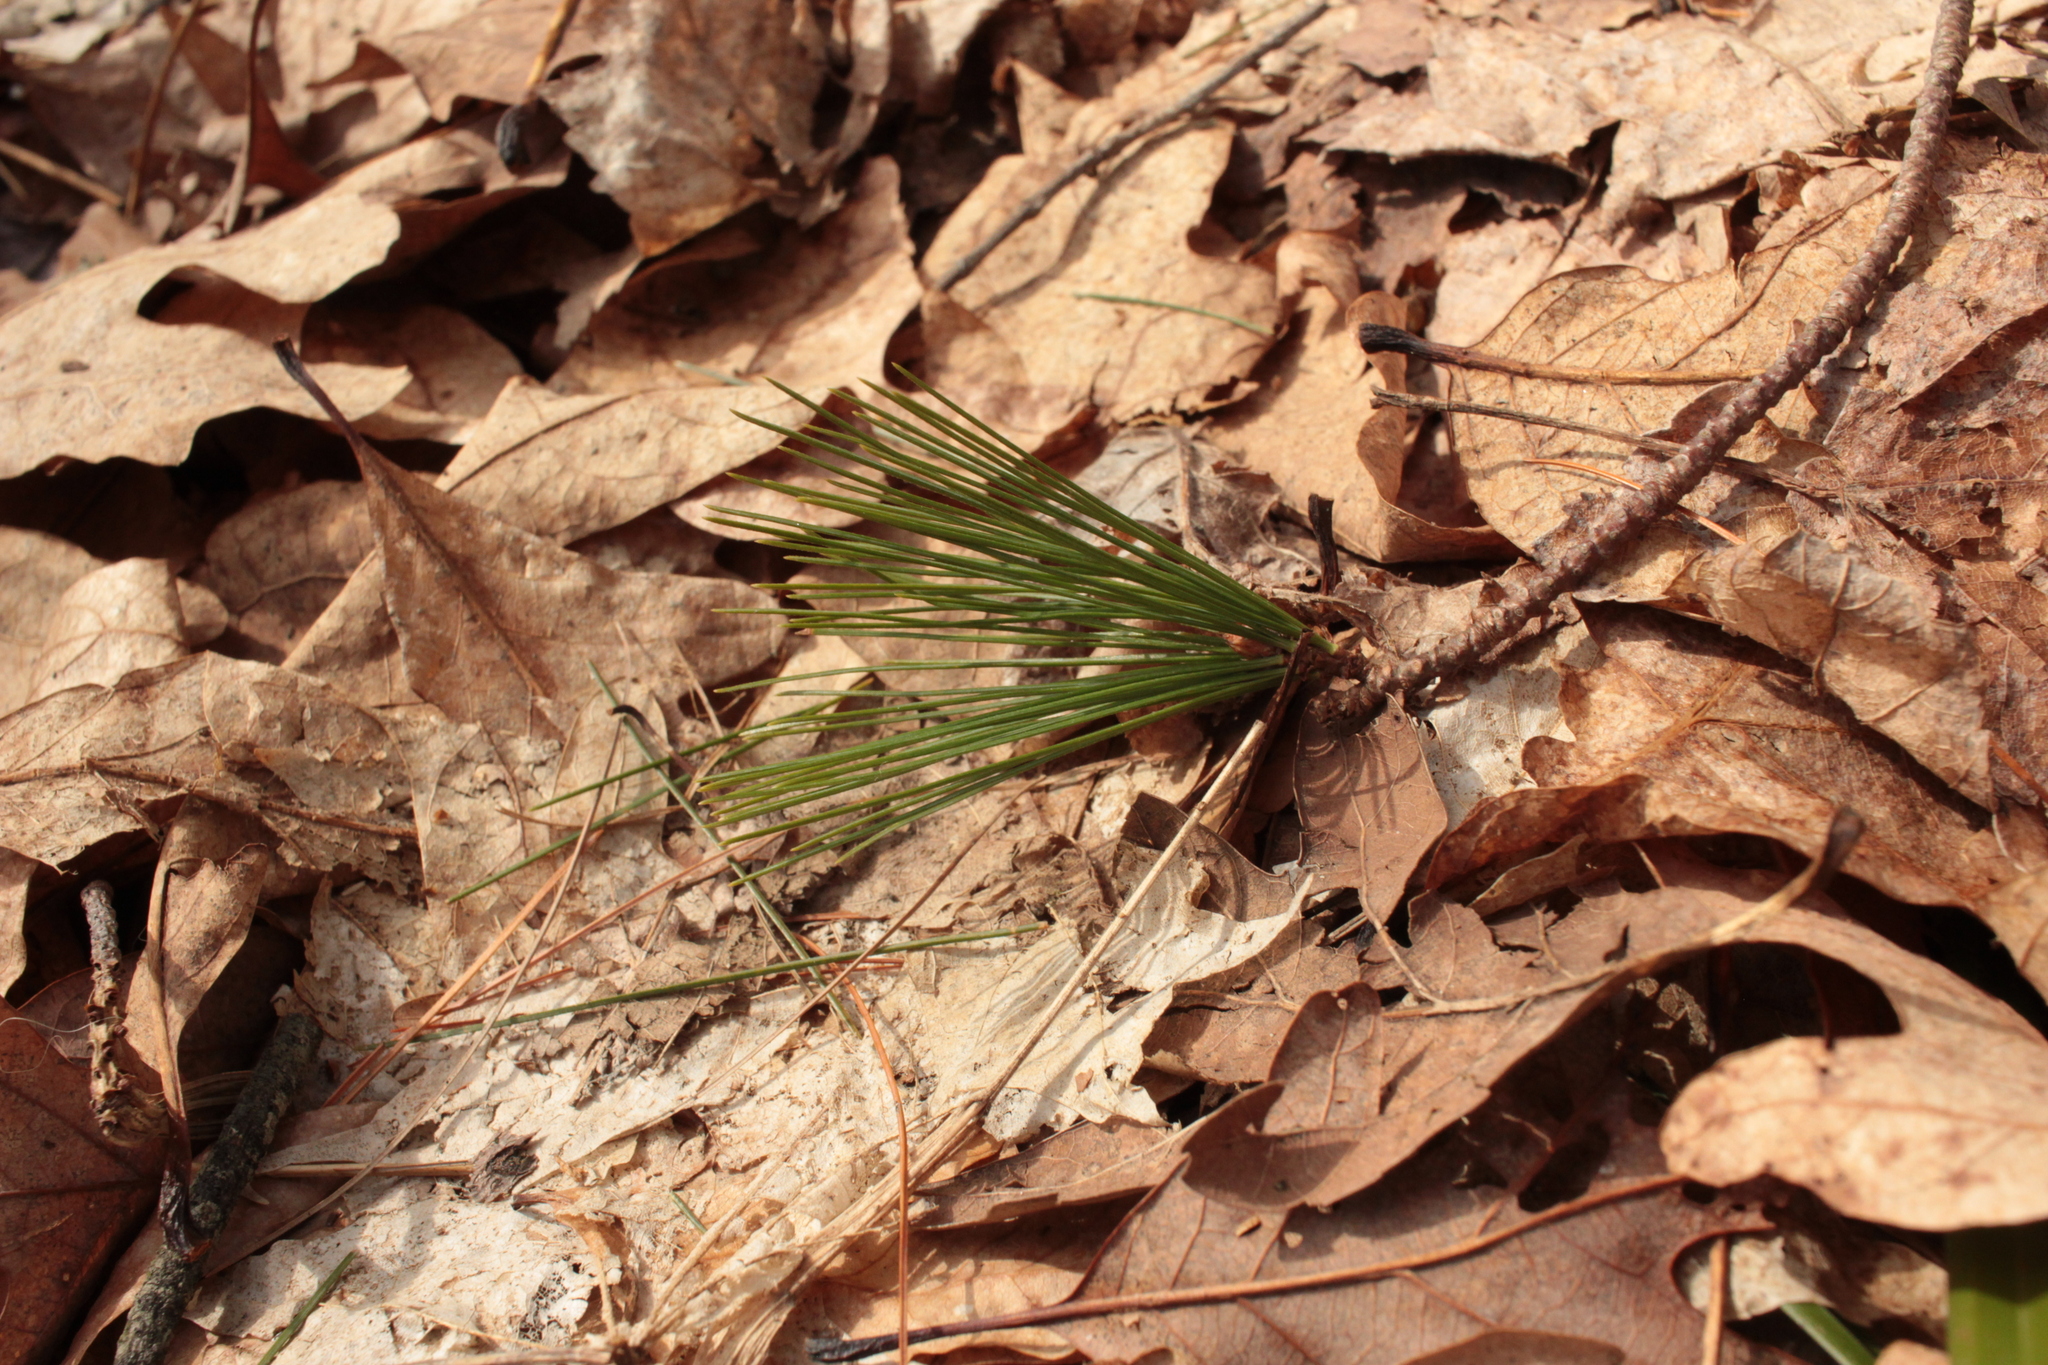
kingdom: Plantae
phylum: Tracheophyta
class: Pinopsida
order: Pinales
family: Pinaceae
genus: Pinus
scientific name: Pinus strobus
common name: Weymouth pine
